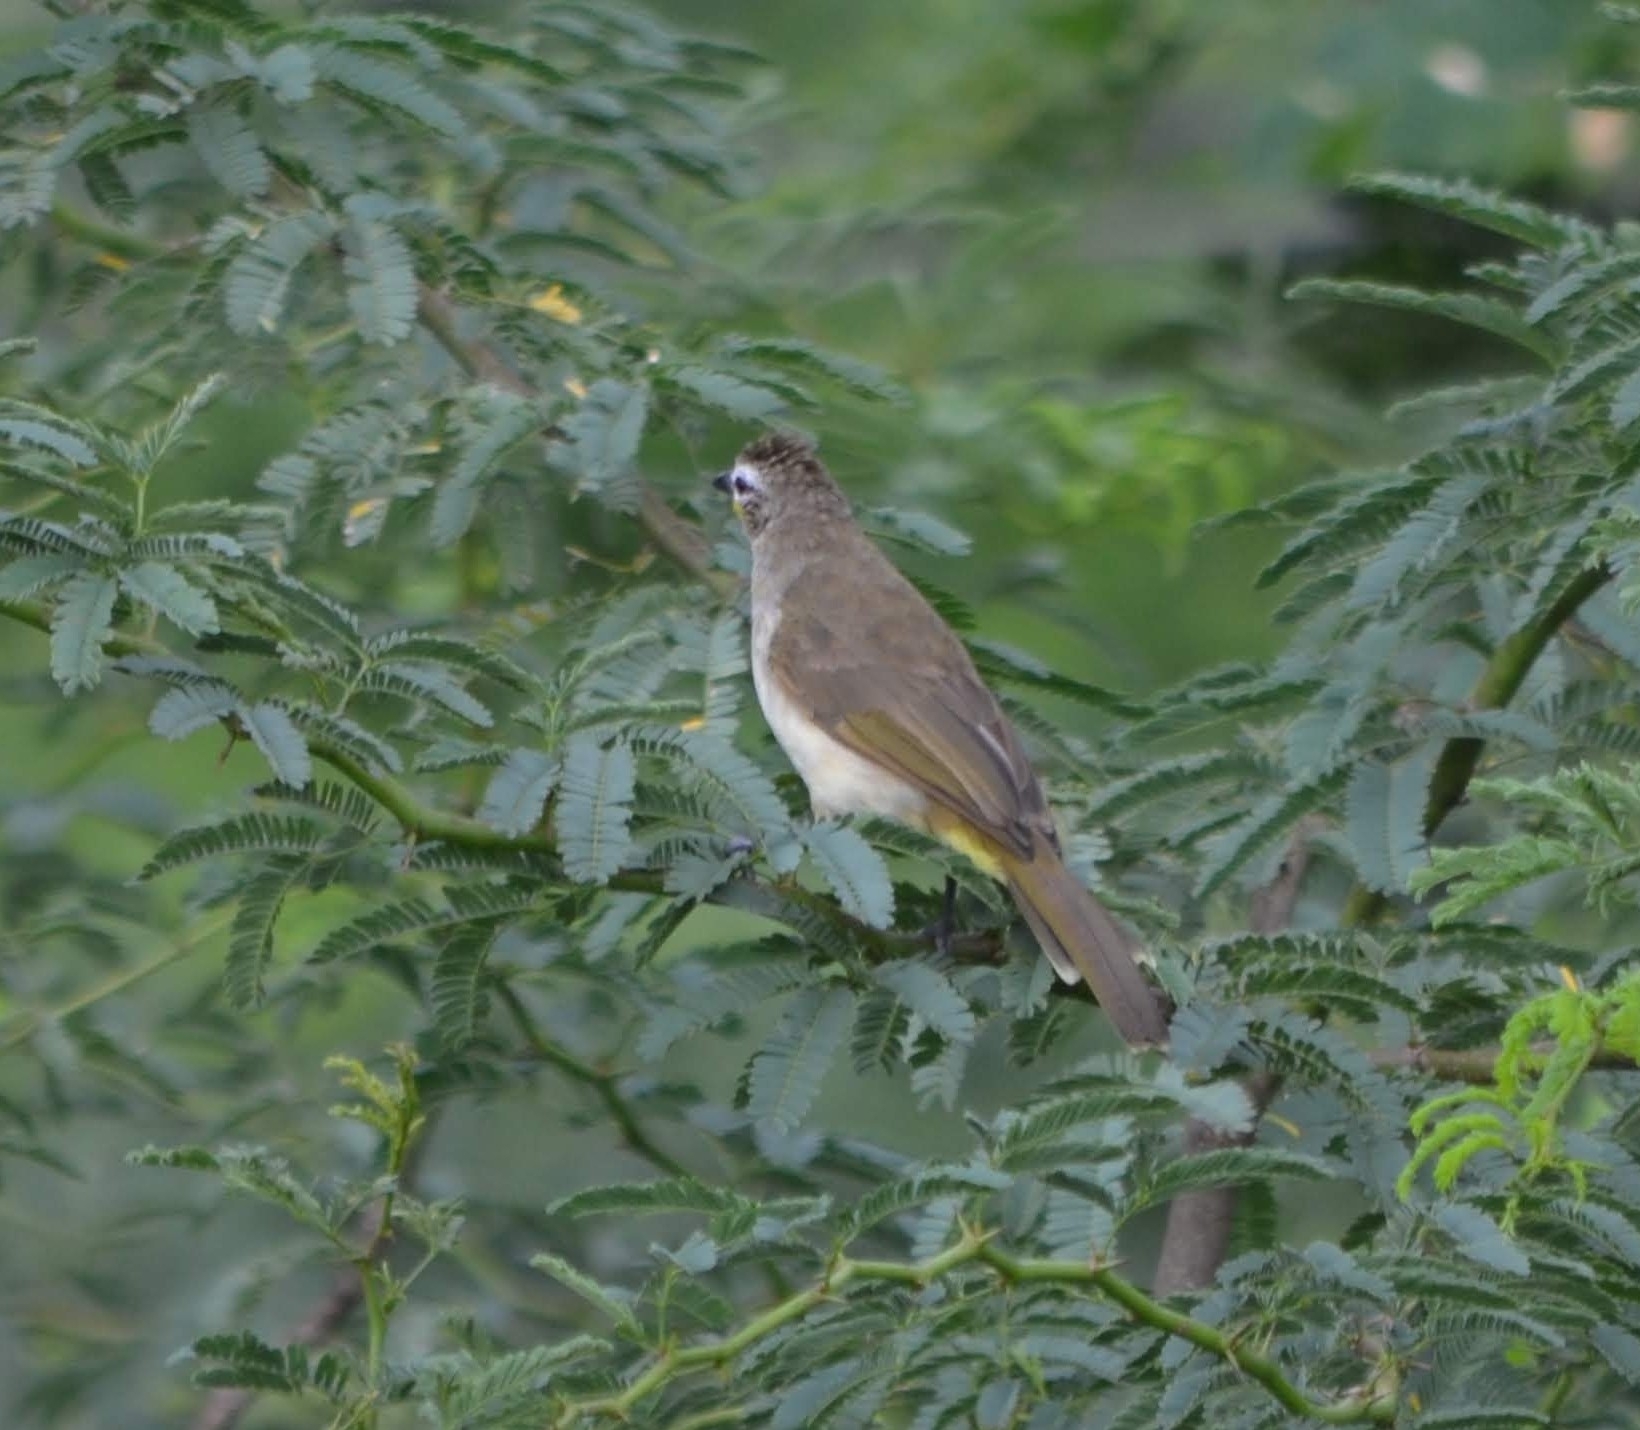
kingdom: Animalia
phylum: Chordata
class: Aves
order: Passeriformes
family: Pycnonotidae
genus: Pycnonotus
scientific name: Pycnonotus luteolus
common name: White-browed bulbul
